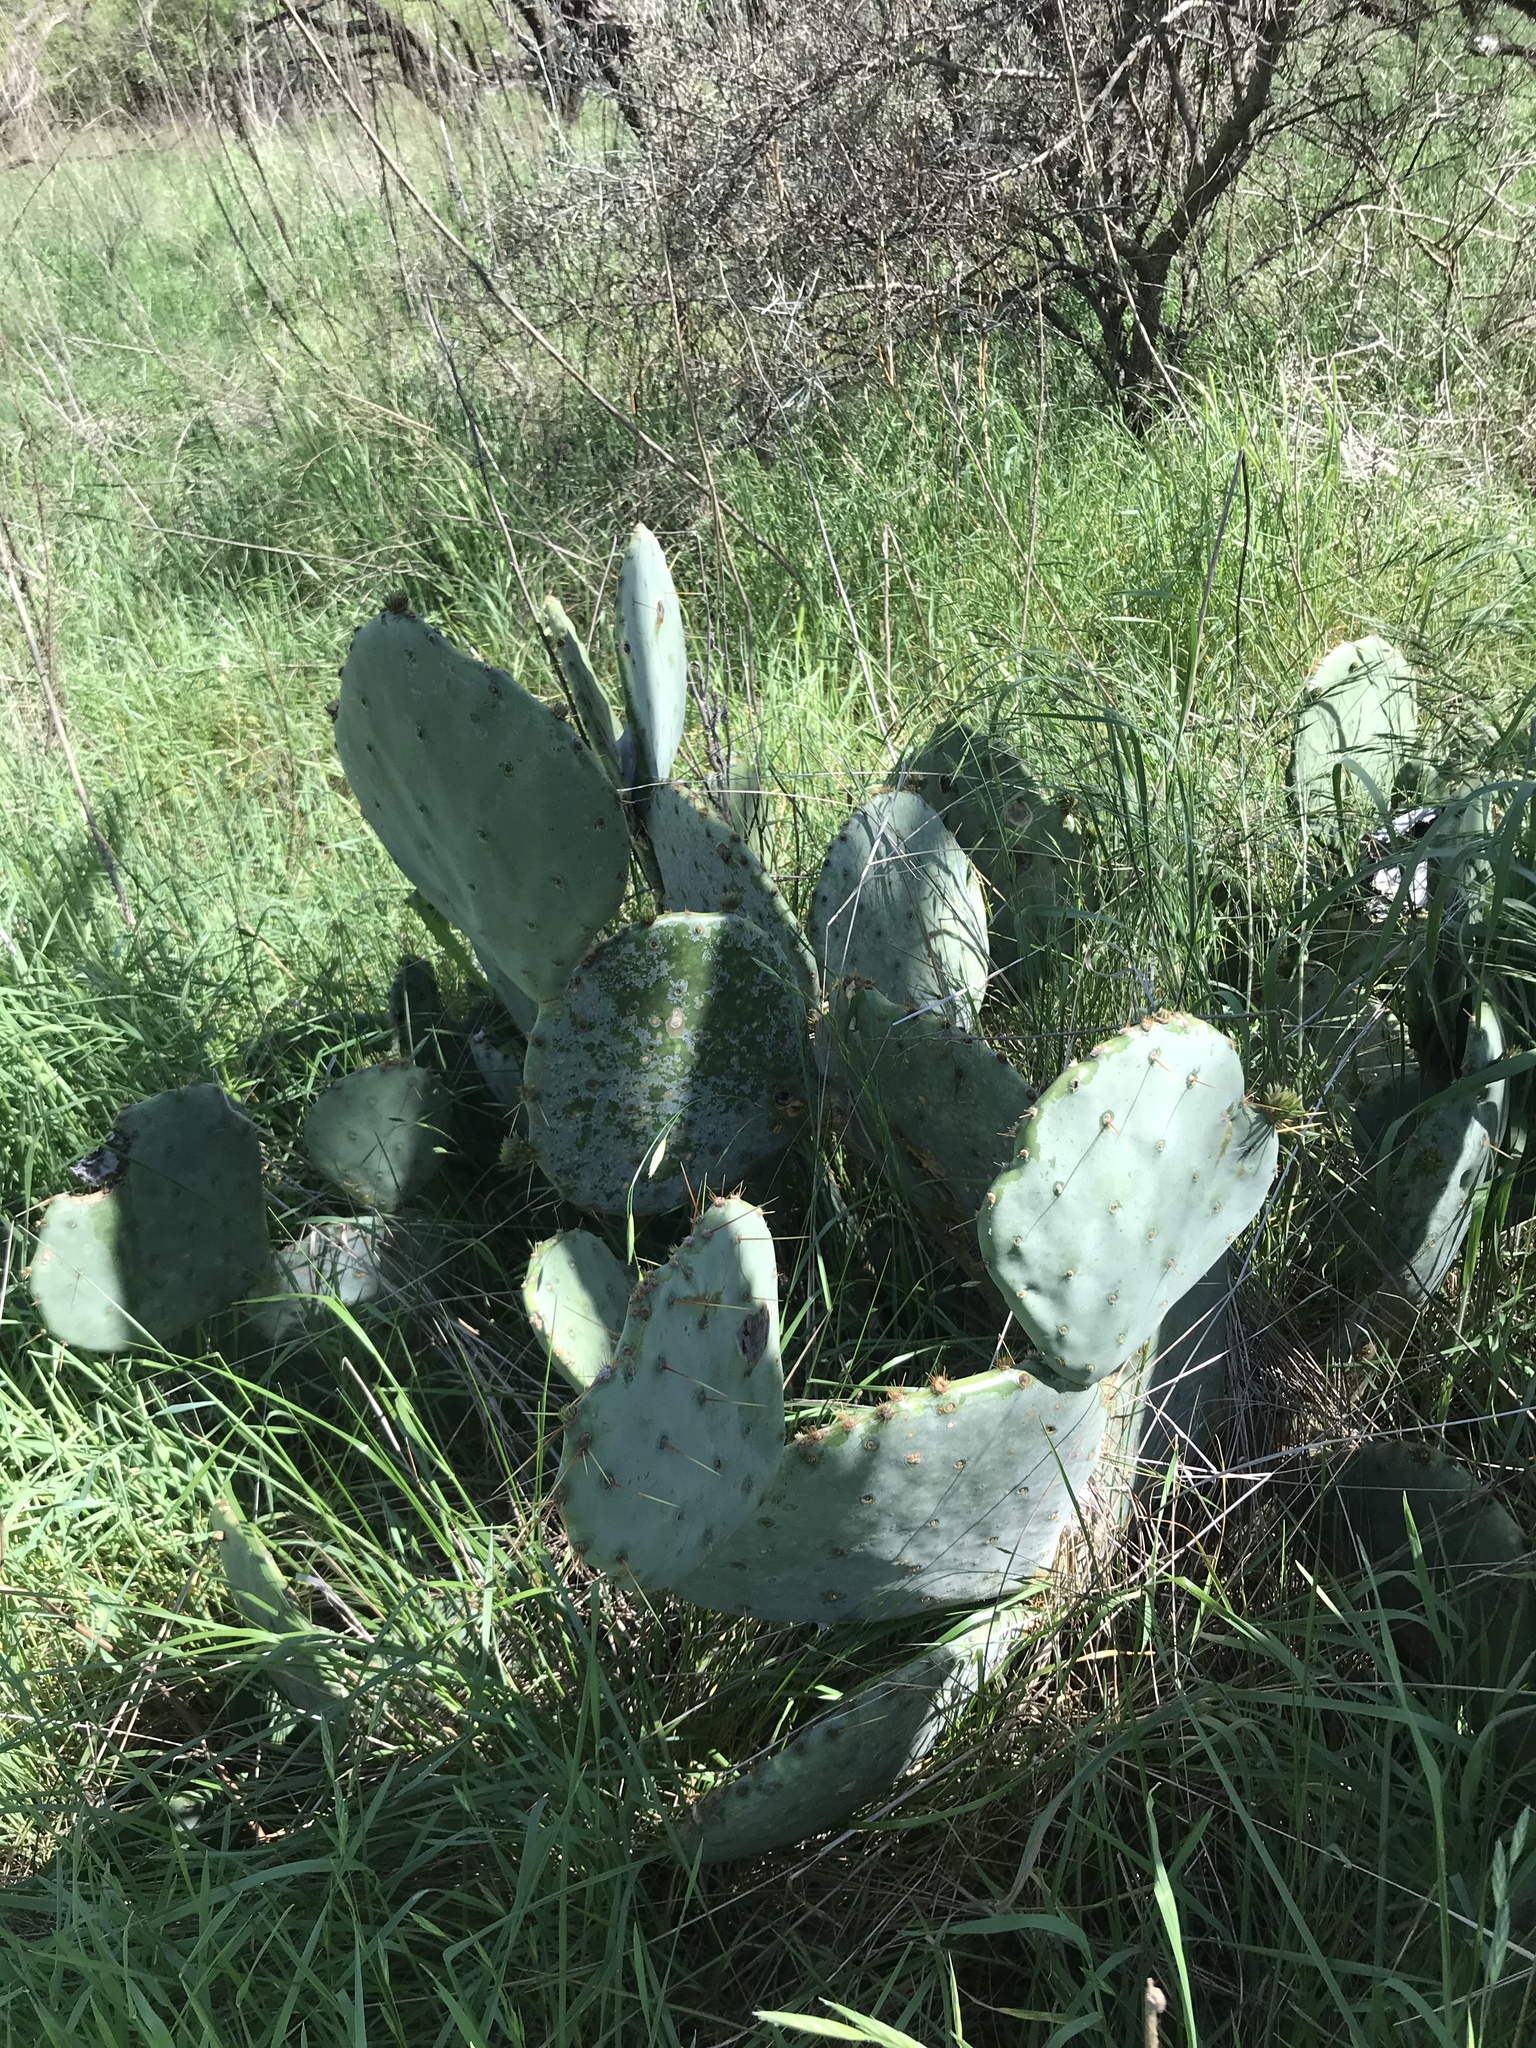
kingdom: Plantae
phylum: Tracheophyta
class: Magnoliopsida
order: Caryophyllales
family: Cactaceae
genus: Opuntia
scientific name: Opuntia orbiculata
